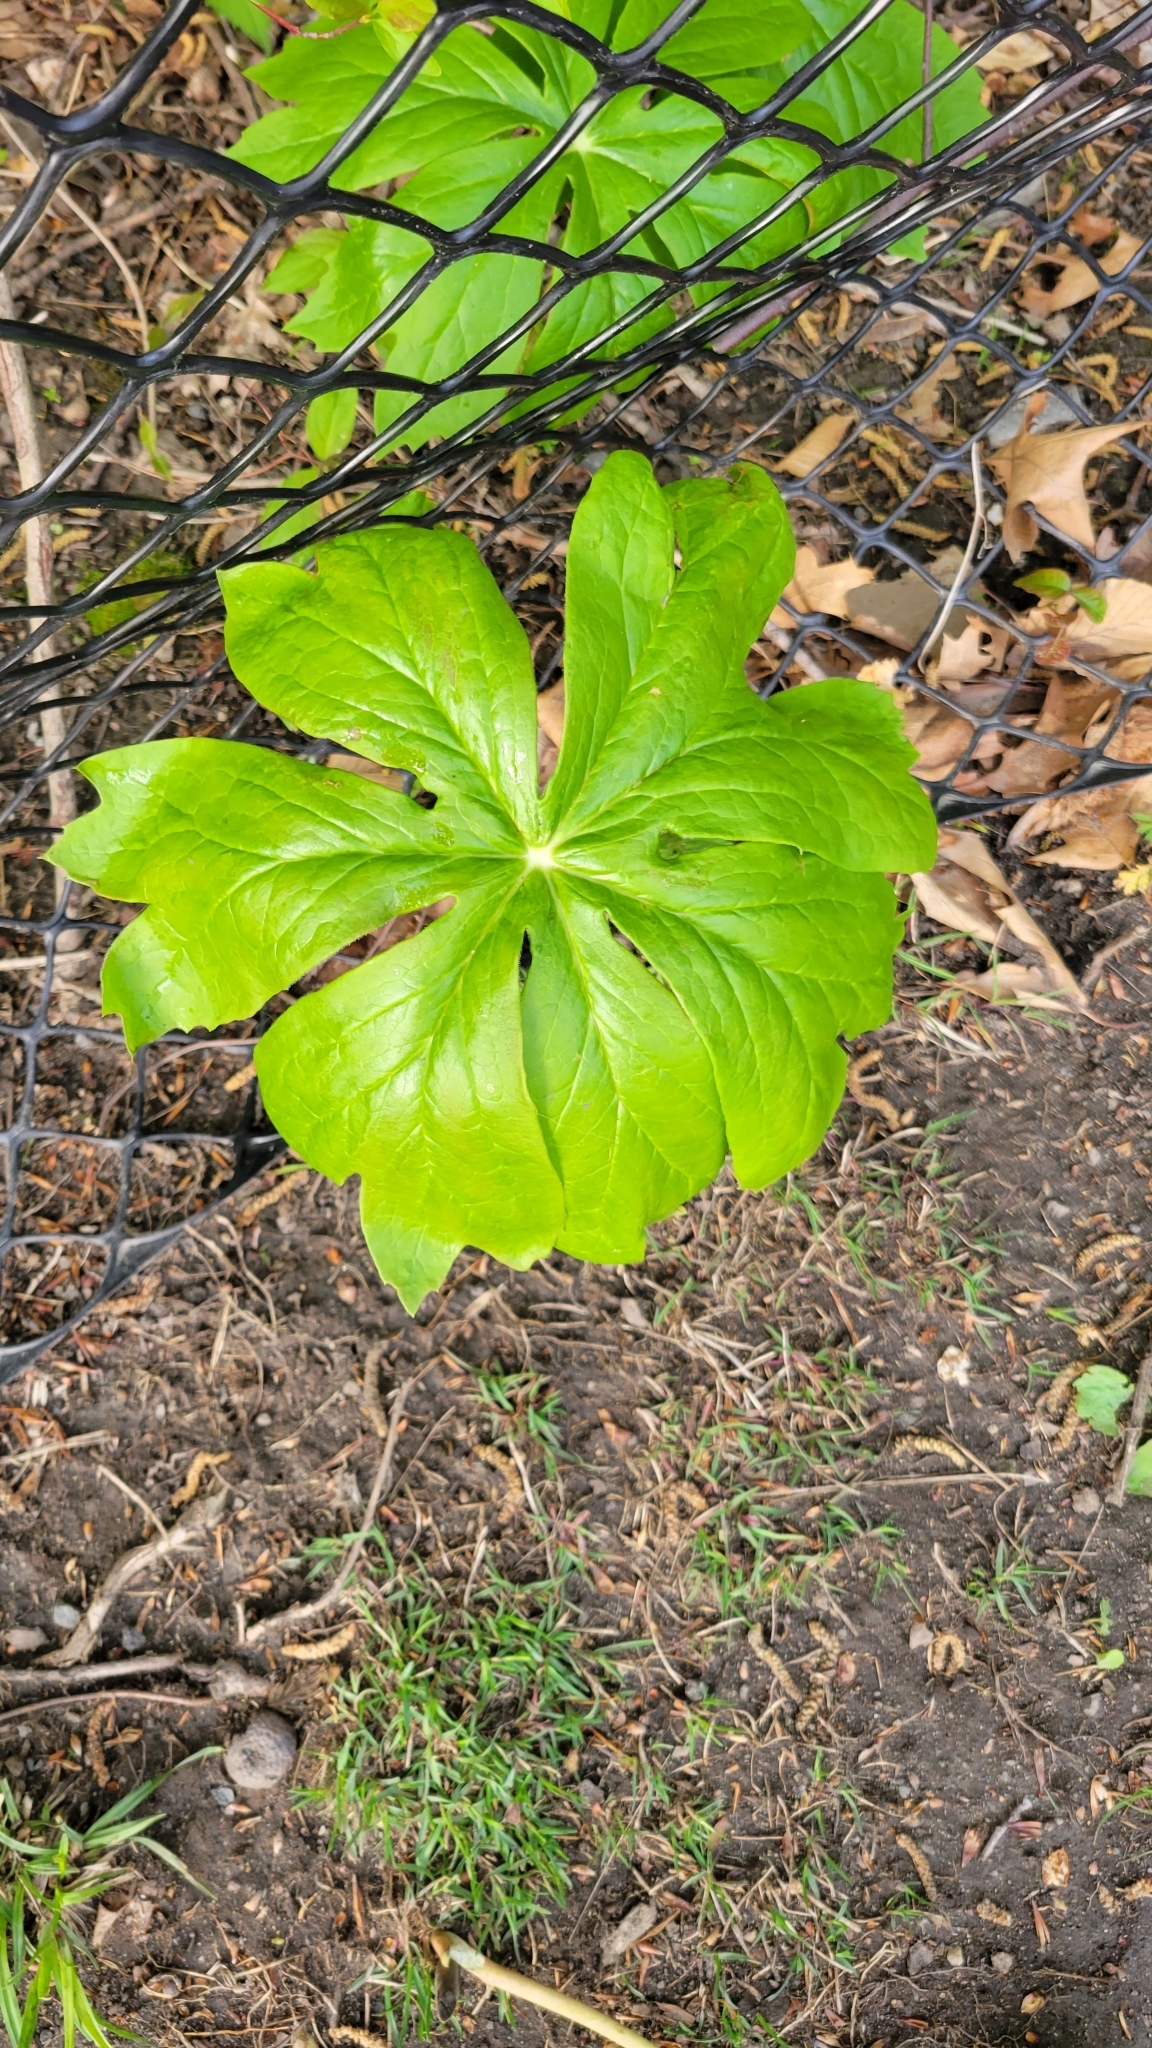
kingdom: Plantae
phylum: Tracheophyta
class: Magnoliopsida
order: Ranunculales
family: Berberidaceae
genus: Podophyllum
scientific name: Podophyllum peltatum
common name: Wild mandrake
